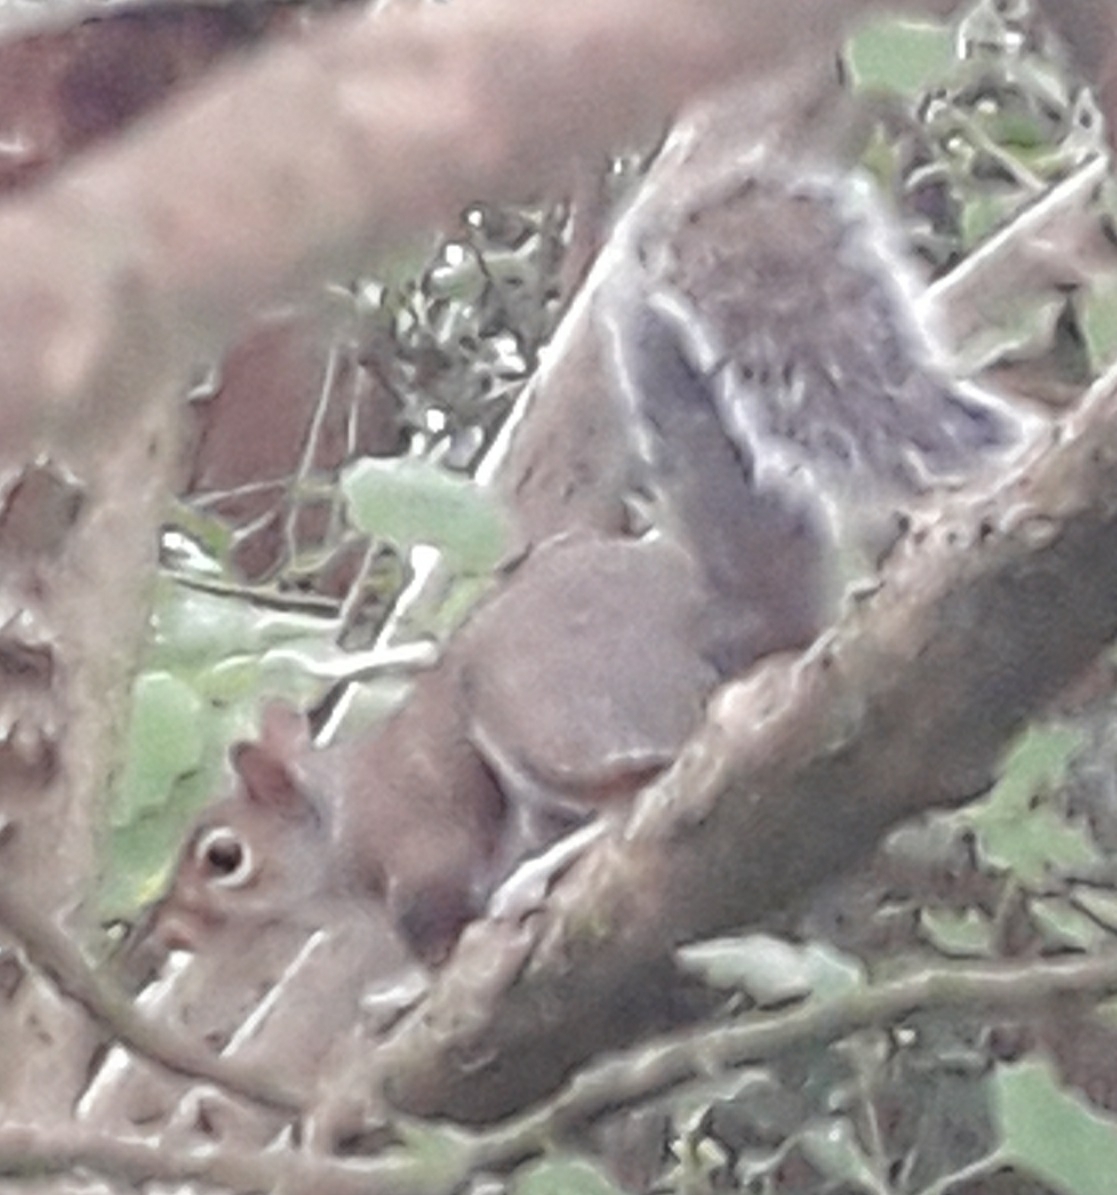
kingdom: Animalia
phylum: Chordata
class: Mammalia
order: Rodentia
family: Sciuridae
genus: Sciurus
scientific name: Sciurus carolinensis
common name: Eastern gray squirrel
